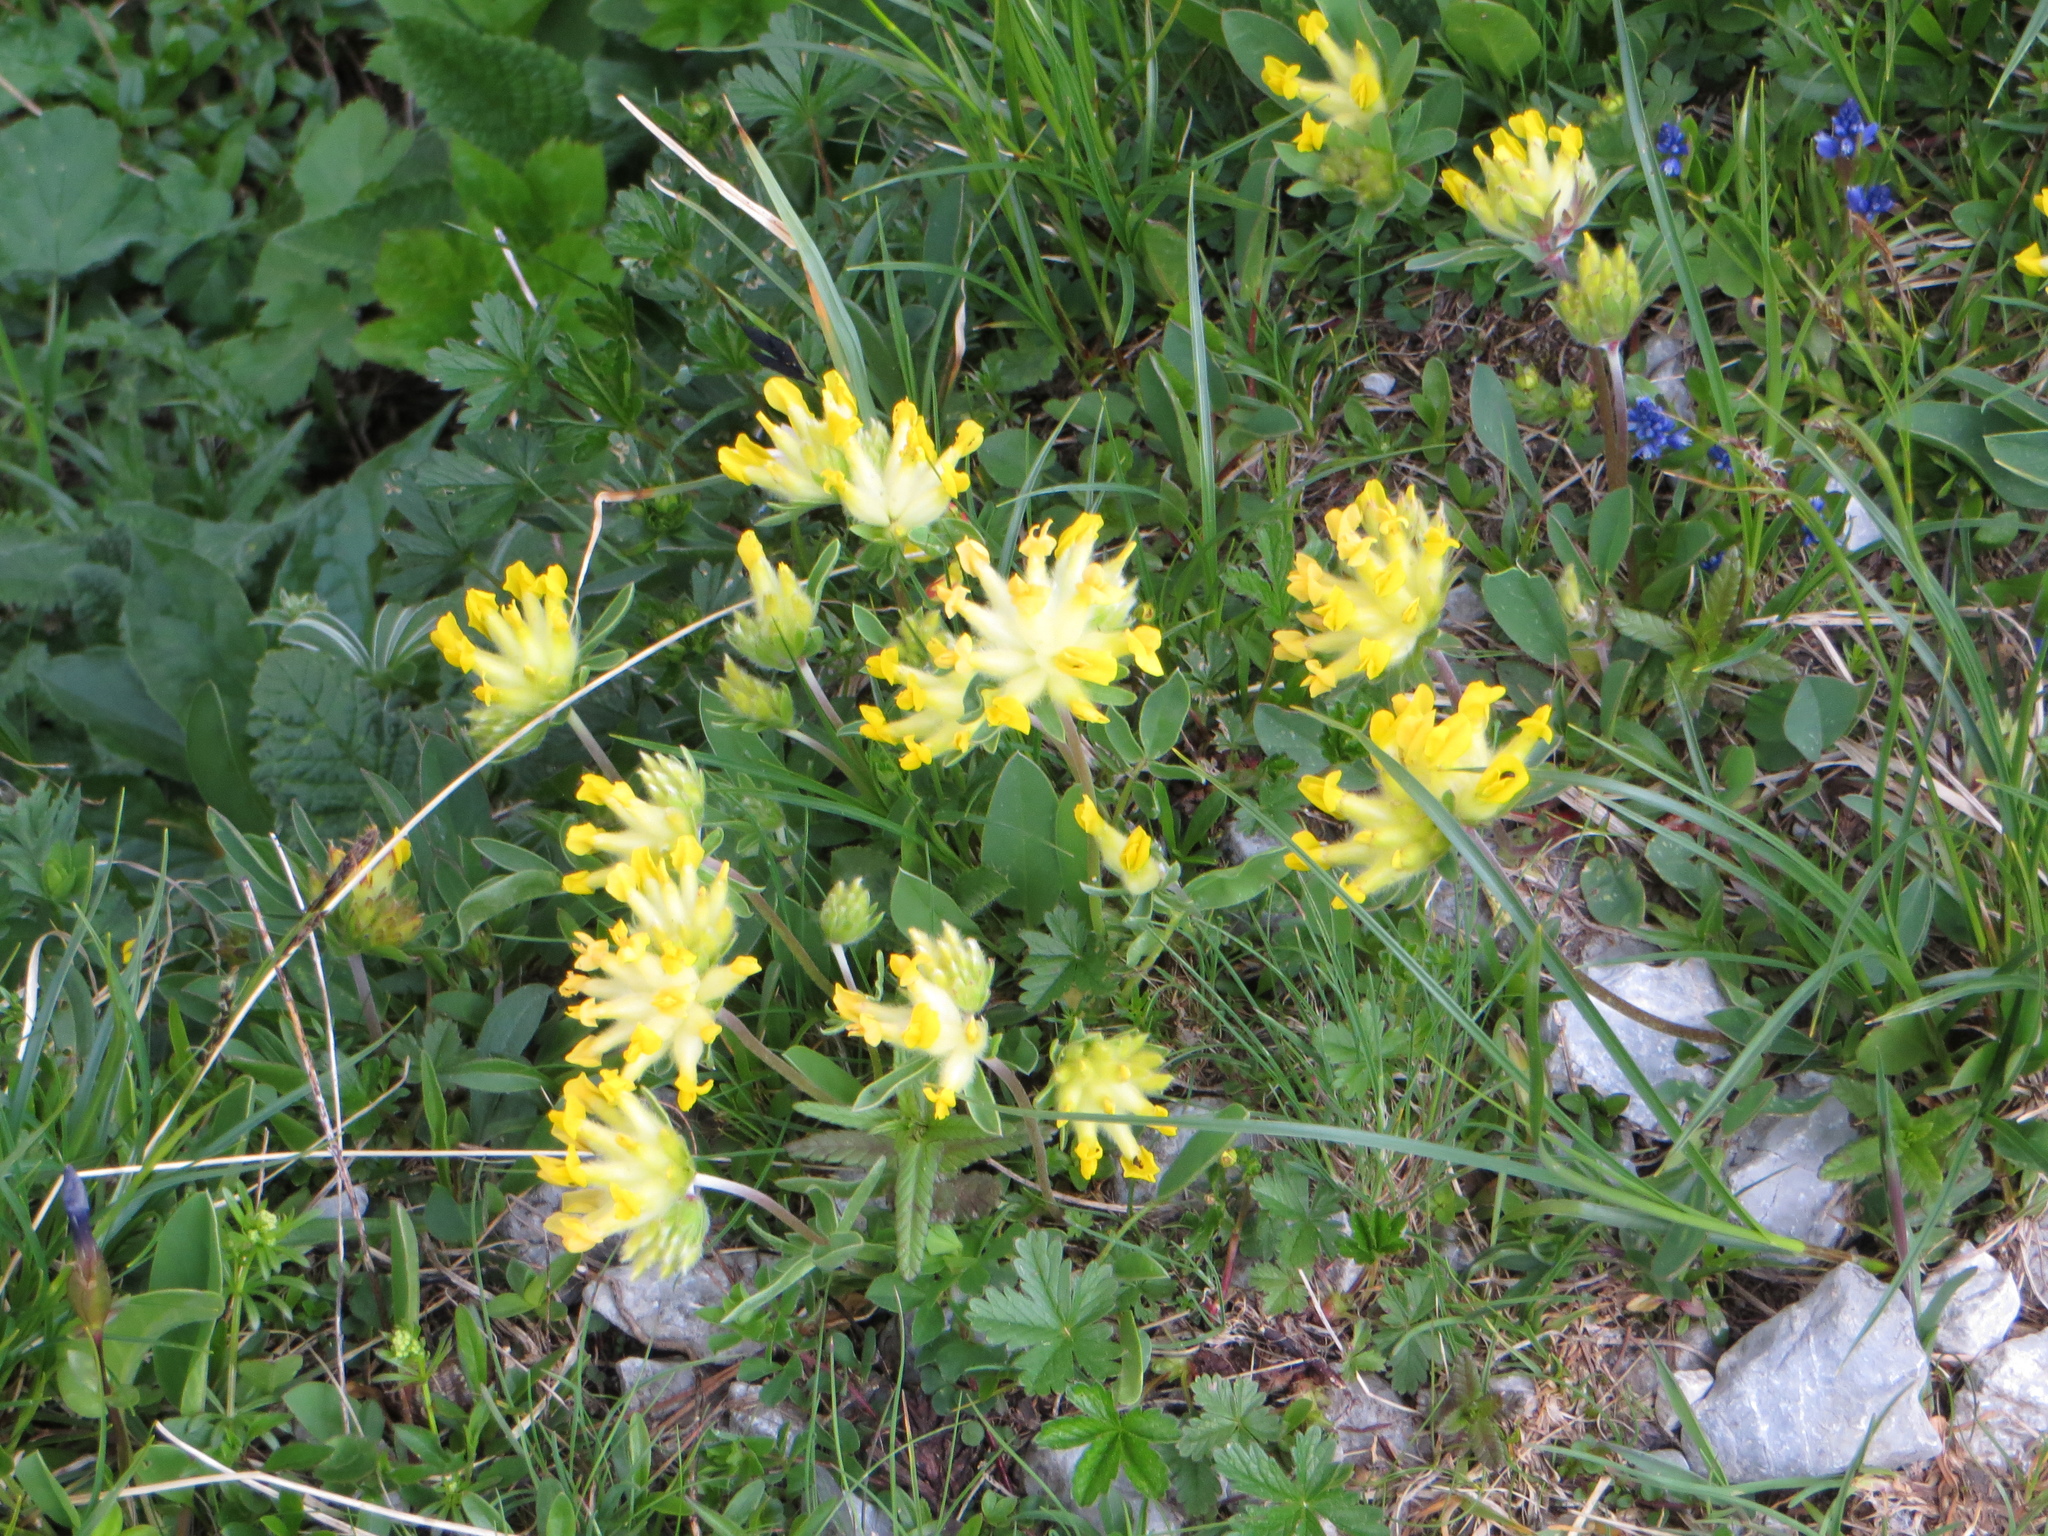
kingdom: Plantae
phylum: Tracheophyta
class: Magnoliopsida
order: Fabales
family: Fabaceae
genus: Anthyllis
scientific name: Anthyllis vulneraria
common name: Kidney vetch
